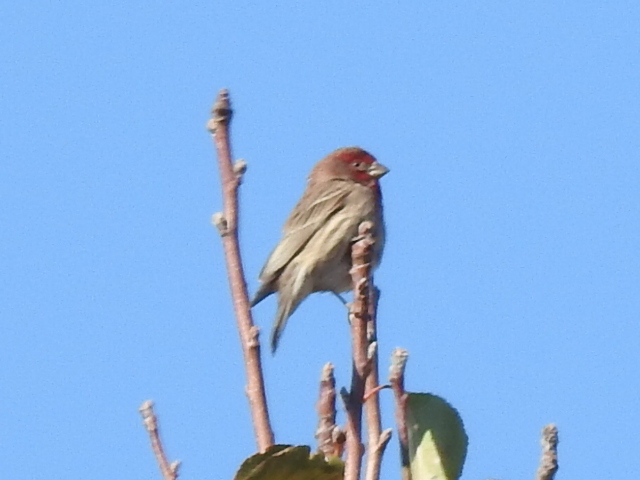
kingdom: Animalia
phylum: Chordata
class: Aves
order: Passeriformes
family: Fringillidae
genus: Haemorhous
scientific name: Haemorhous mexicanus
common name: House finch
